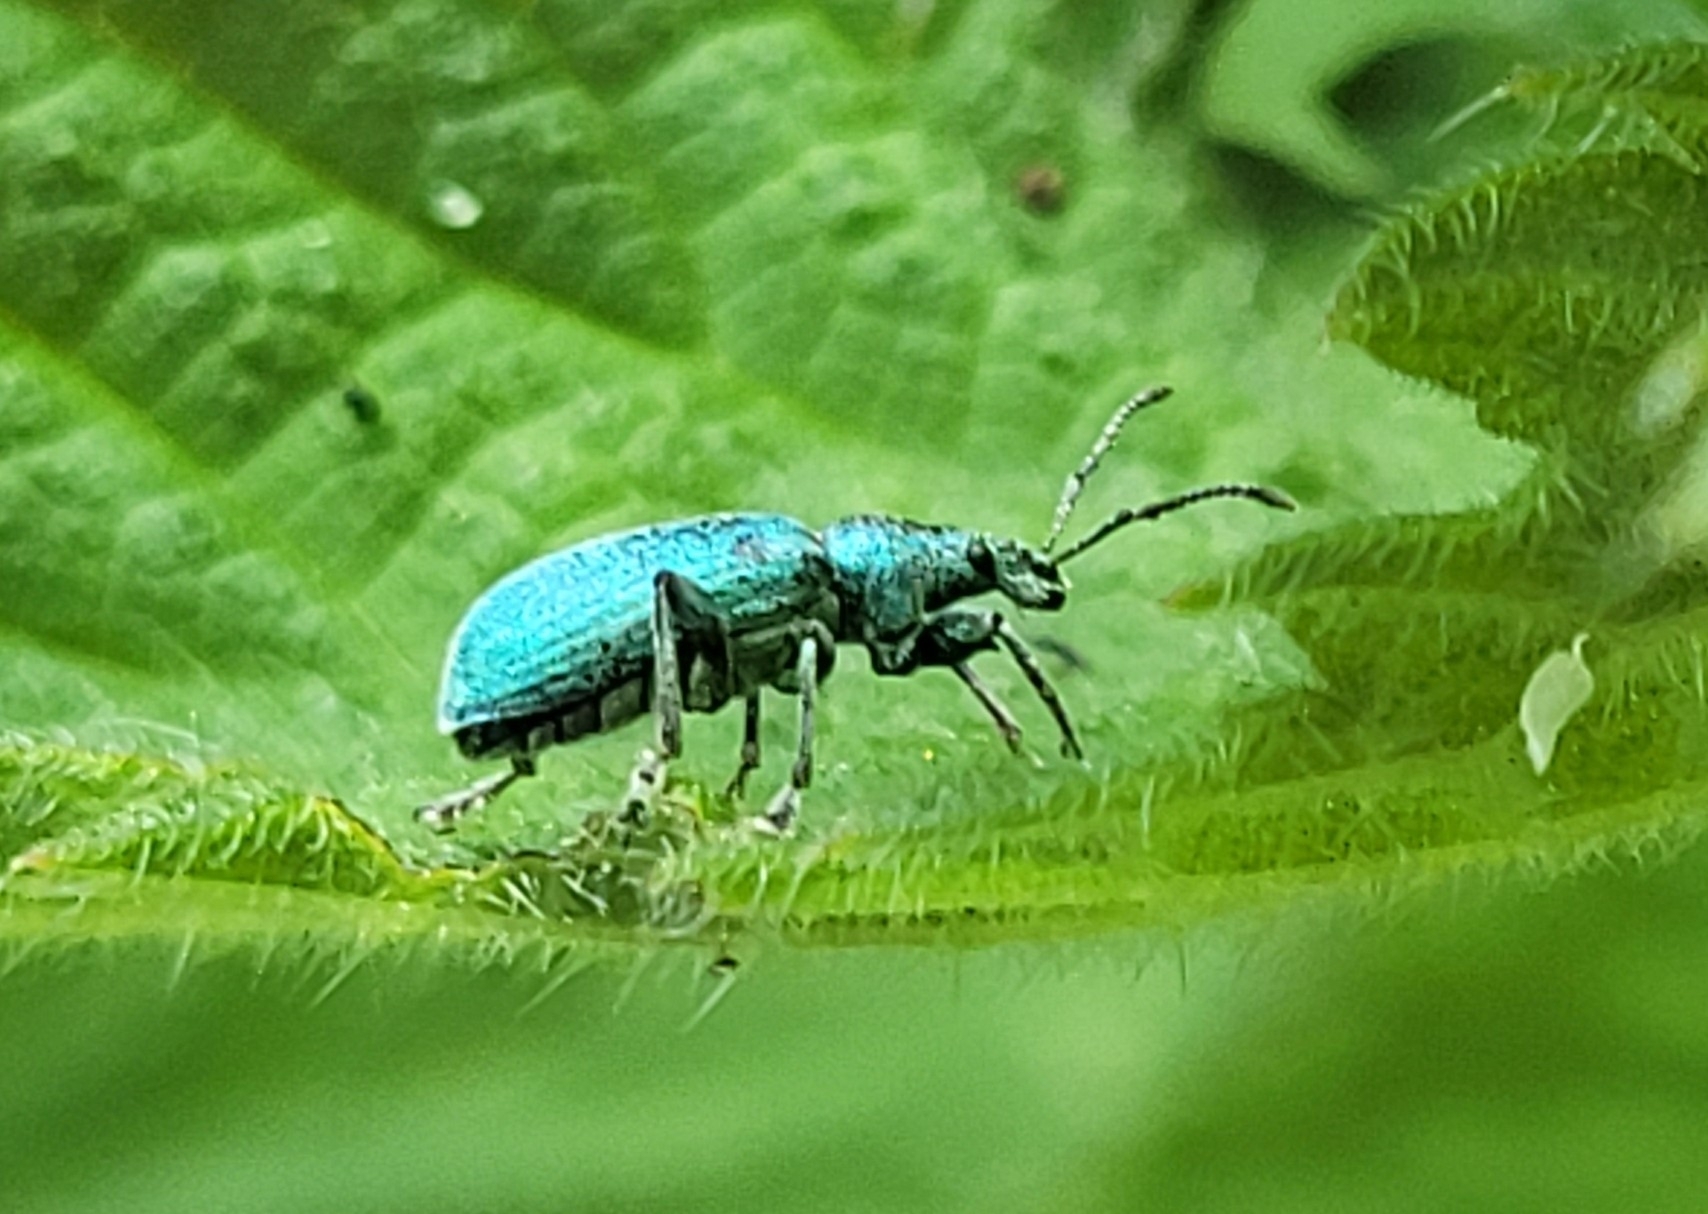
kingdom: Animalia
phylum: Arthropoda
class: Insecta
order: Coleoptera
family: Curculionidae
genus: Phyllobius
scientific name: Phyllobius pomaceus
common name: Green nettle weevil
